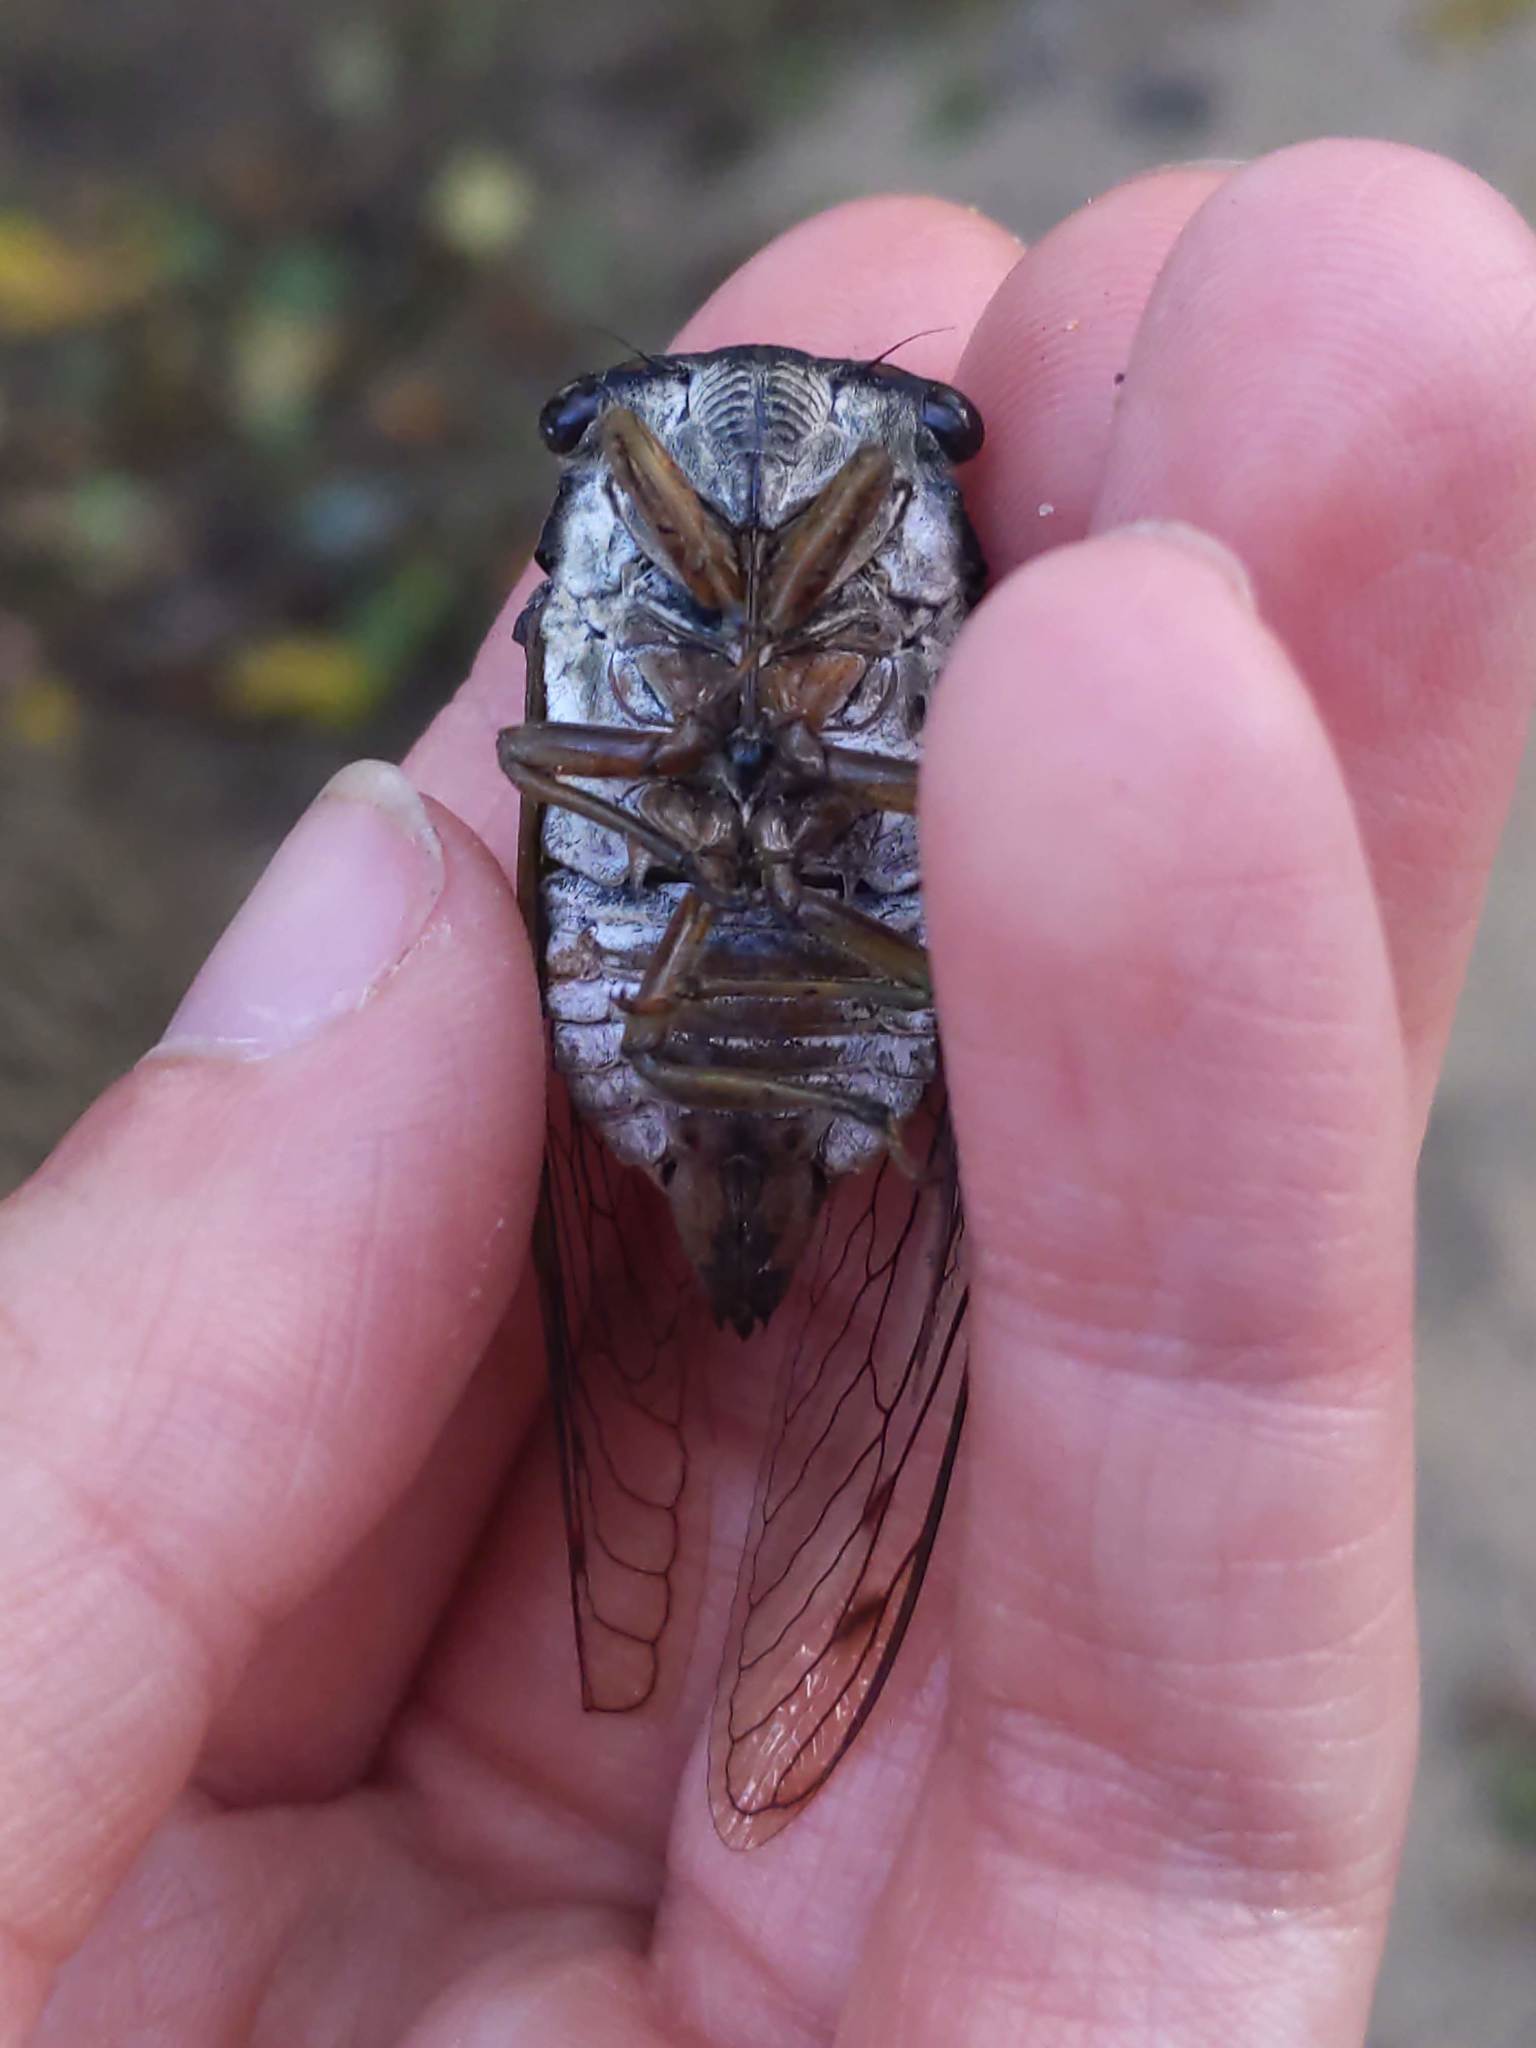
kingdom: Animalia
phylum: Arthropoda
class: Insecta
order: Hemiptera
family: Cicadidae
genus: Neotibicen
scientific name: Neotibicen
